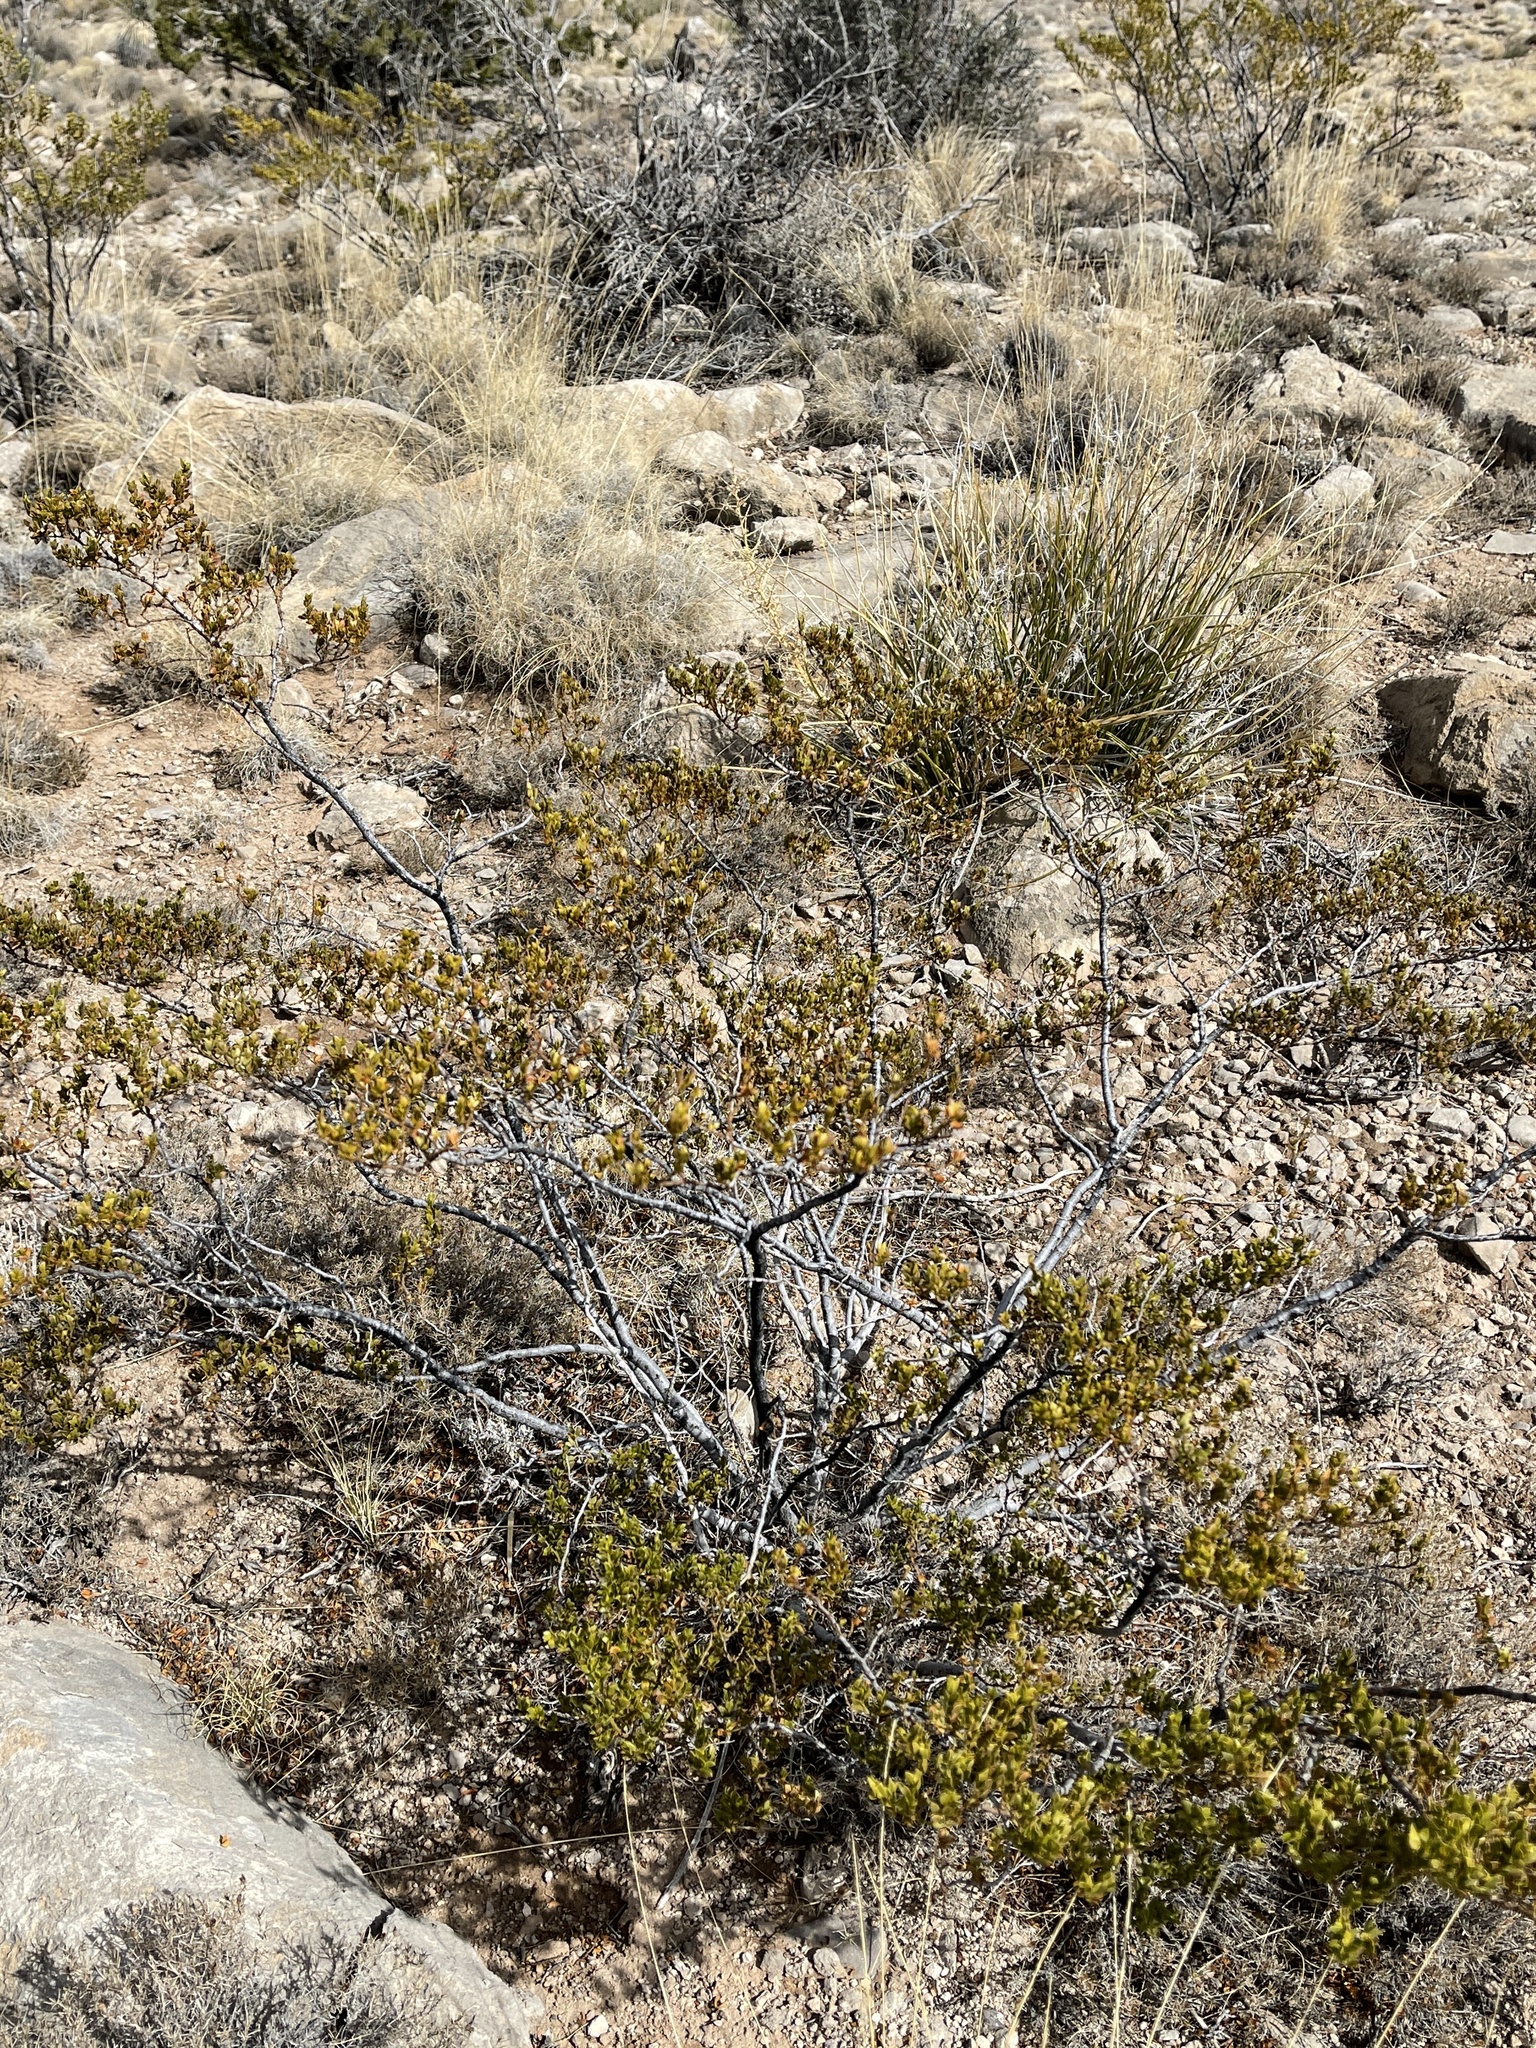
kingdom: Plantae
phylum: Tracheophyta
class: Magnoliopsida
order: Zygophyllales
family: Zygophyllaceae
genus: Larrea
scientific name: Larrea tridentata
